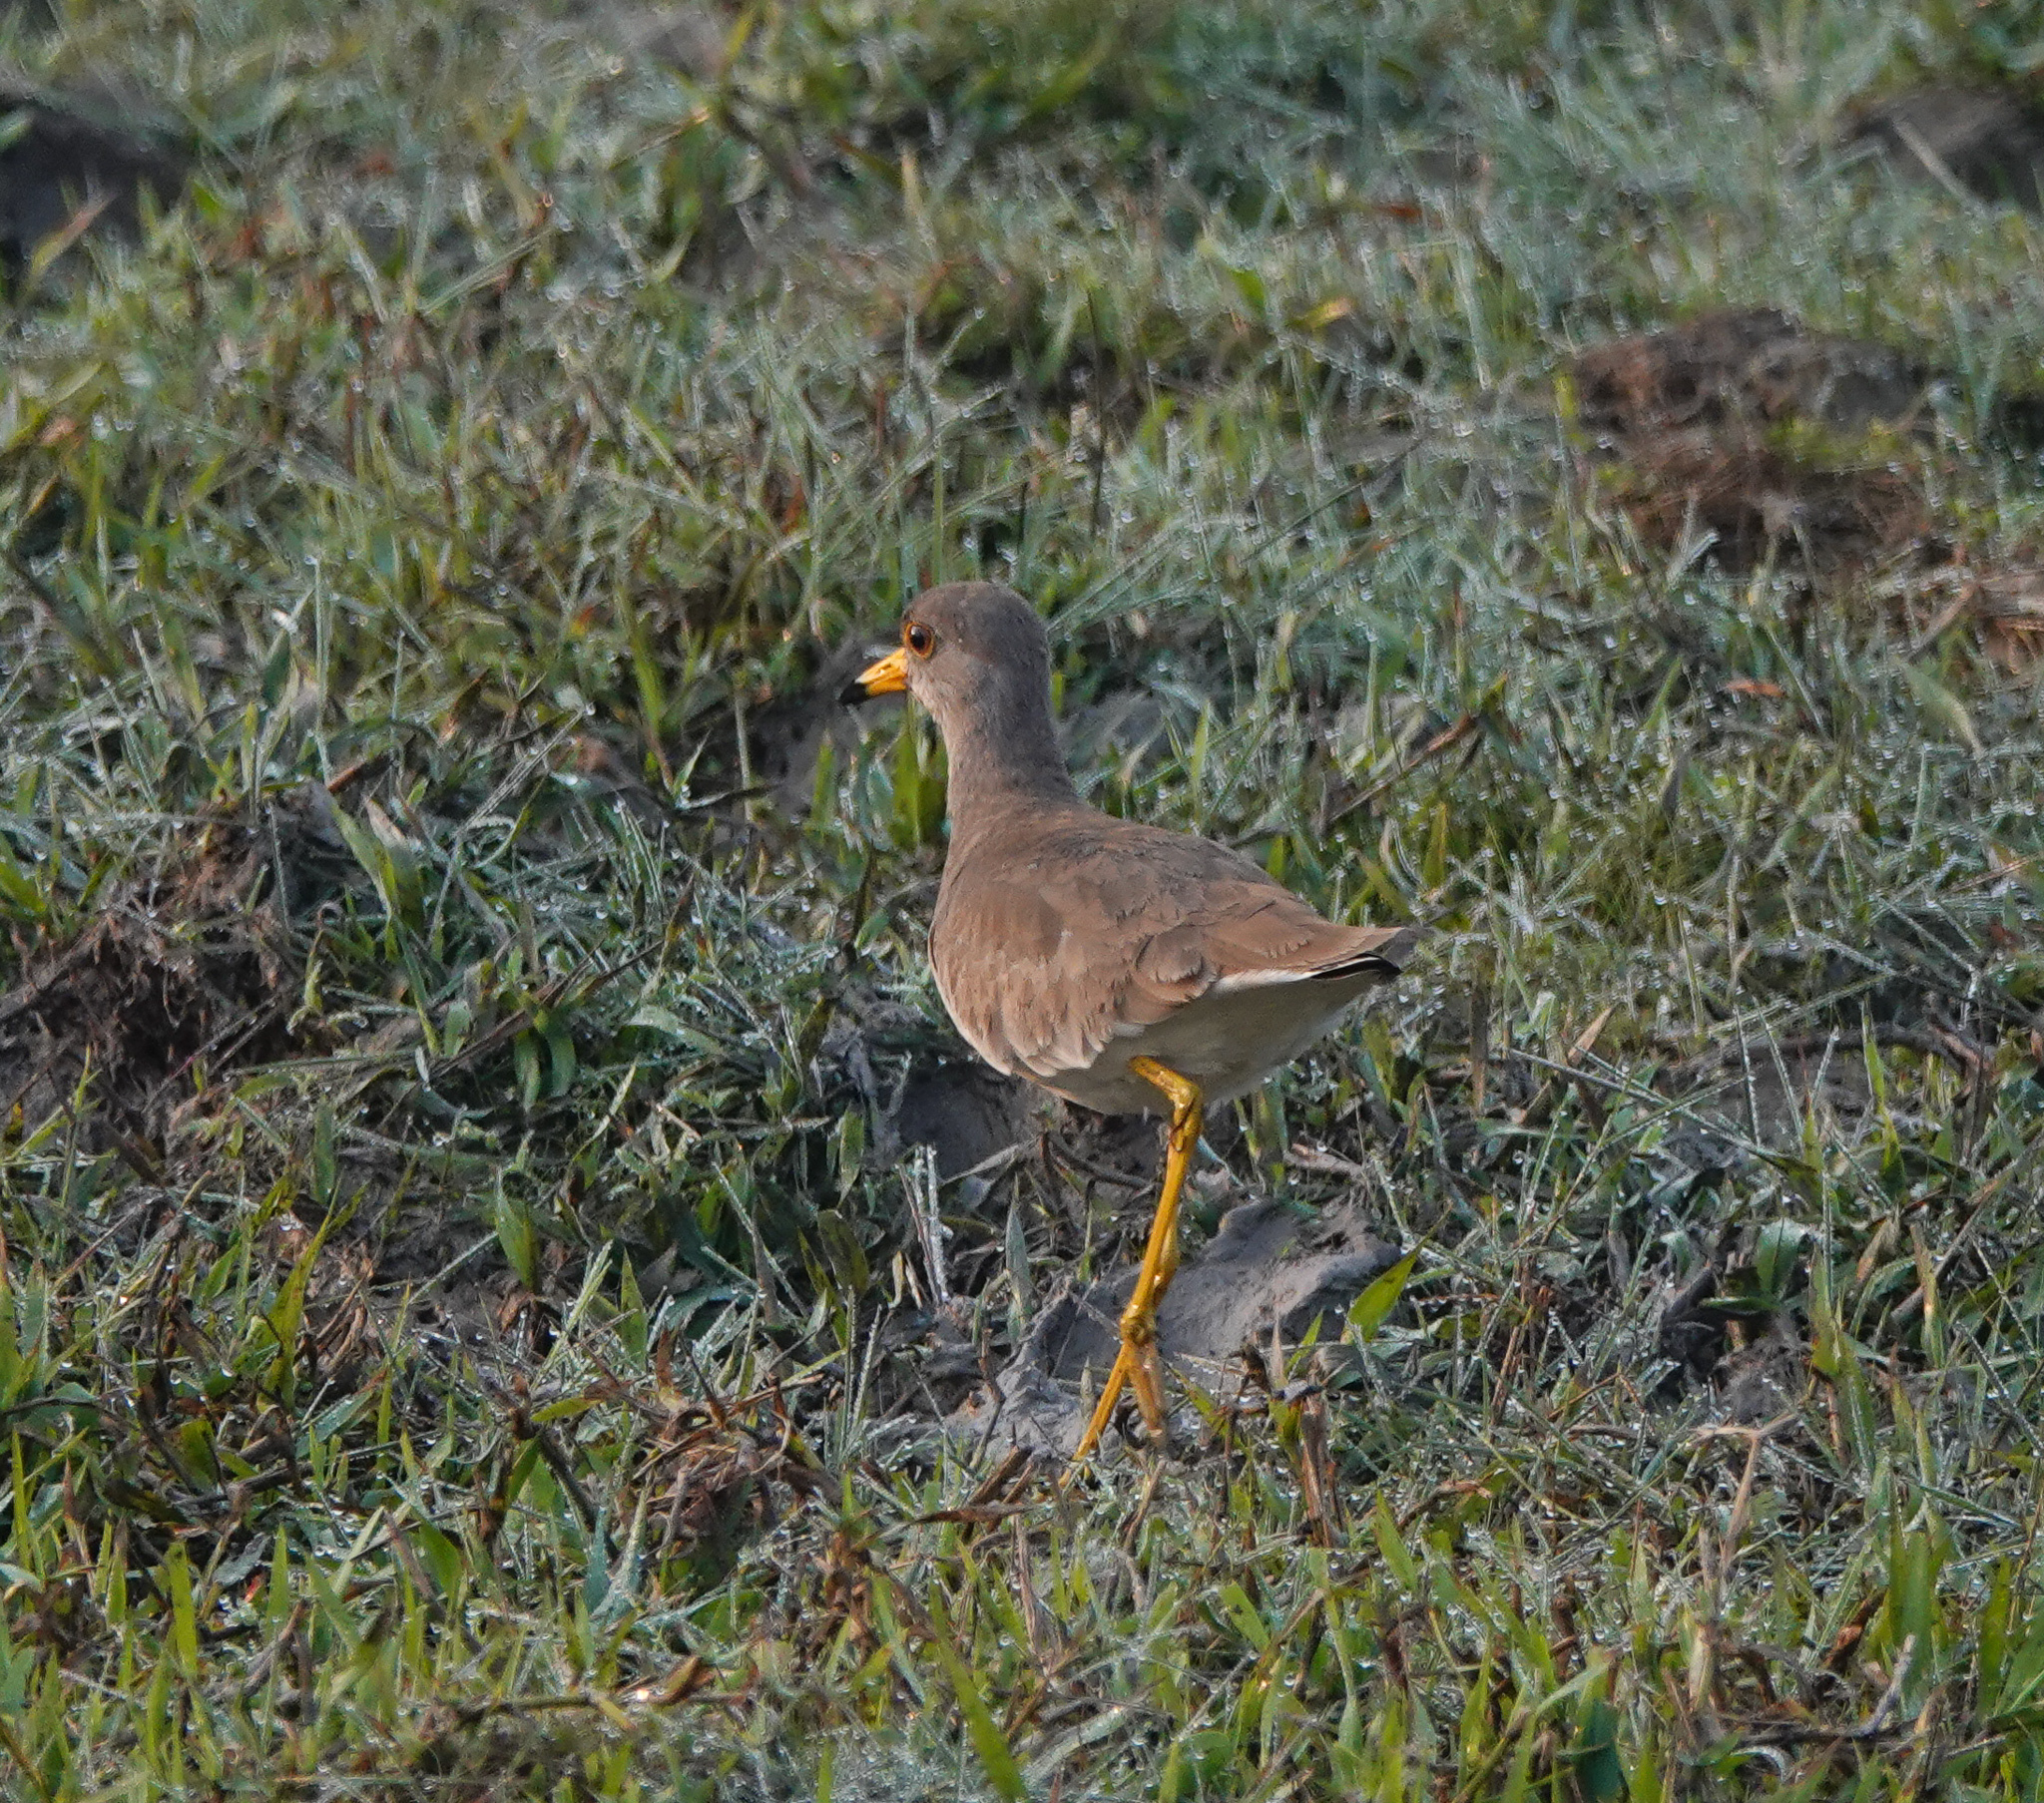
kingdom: Animalia
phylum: Chordata
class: Aves
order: Charadriiformes
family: Charadriidae
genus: Vanellus
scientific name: Vanellus cinereus
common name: Grey-headed lapwing
